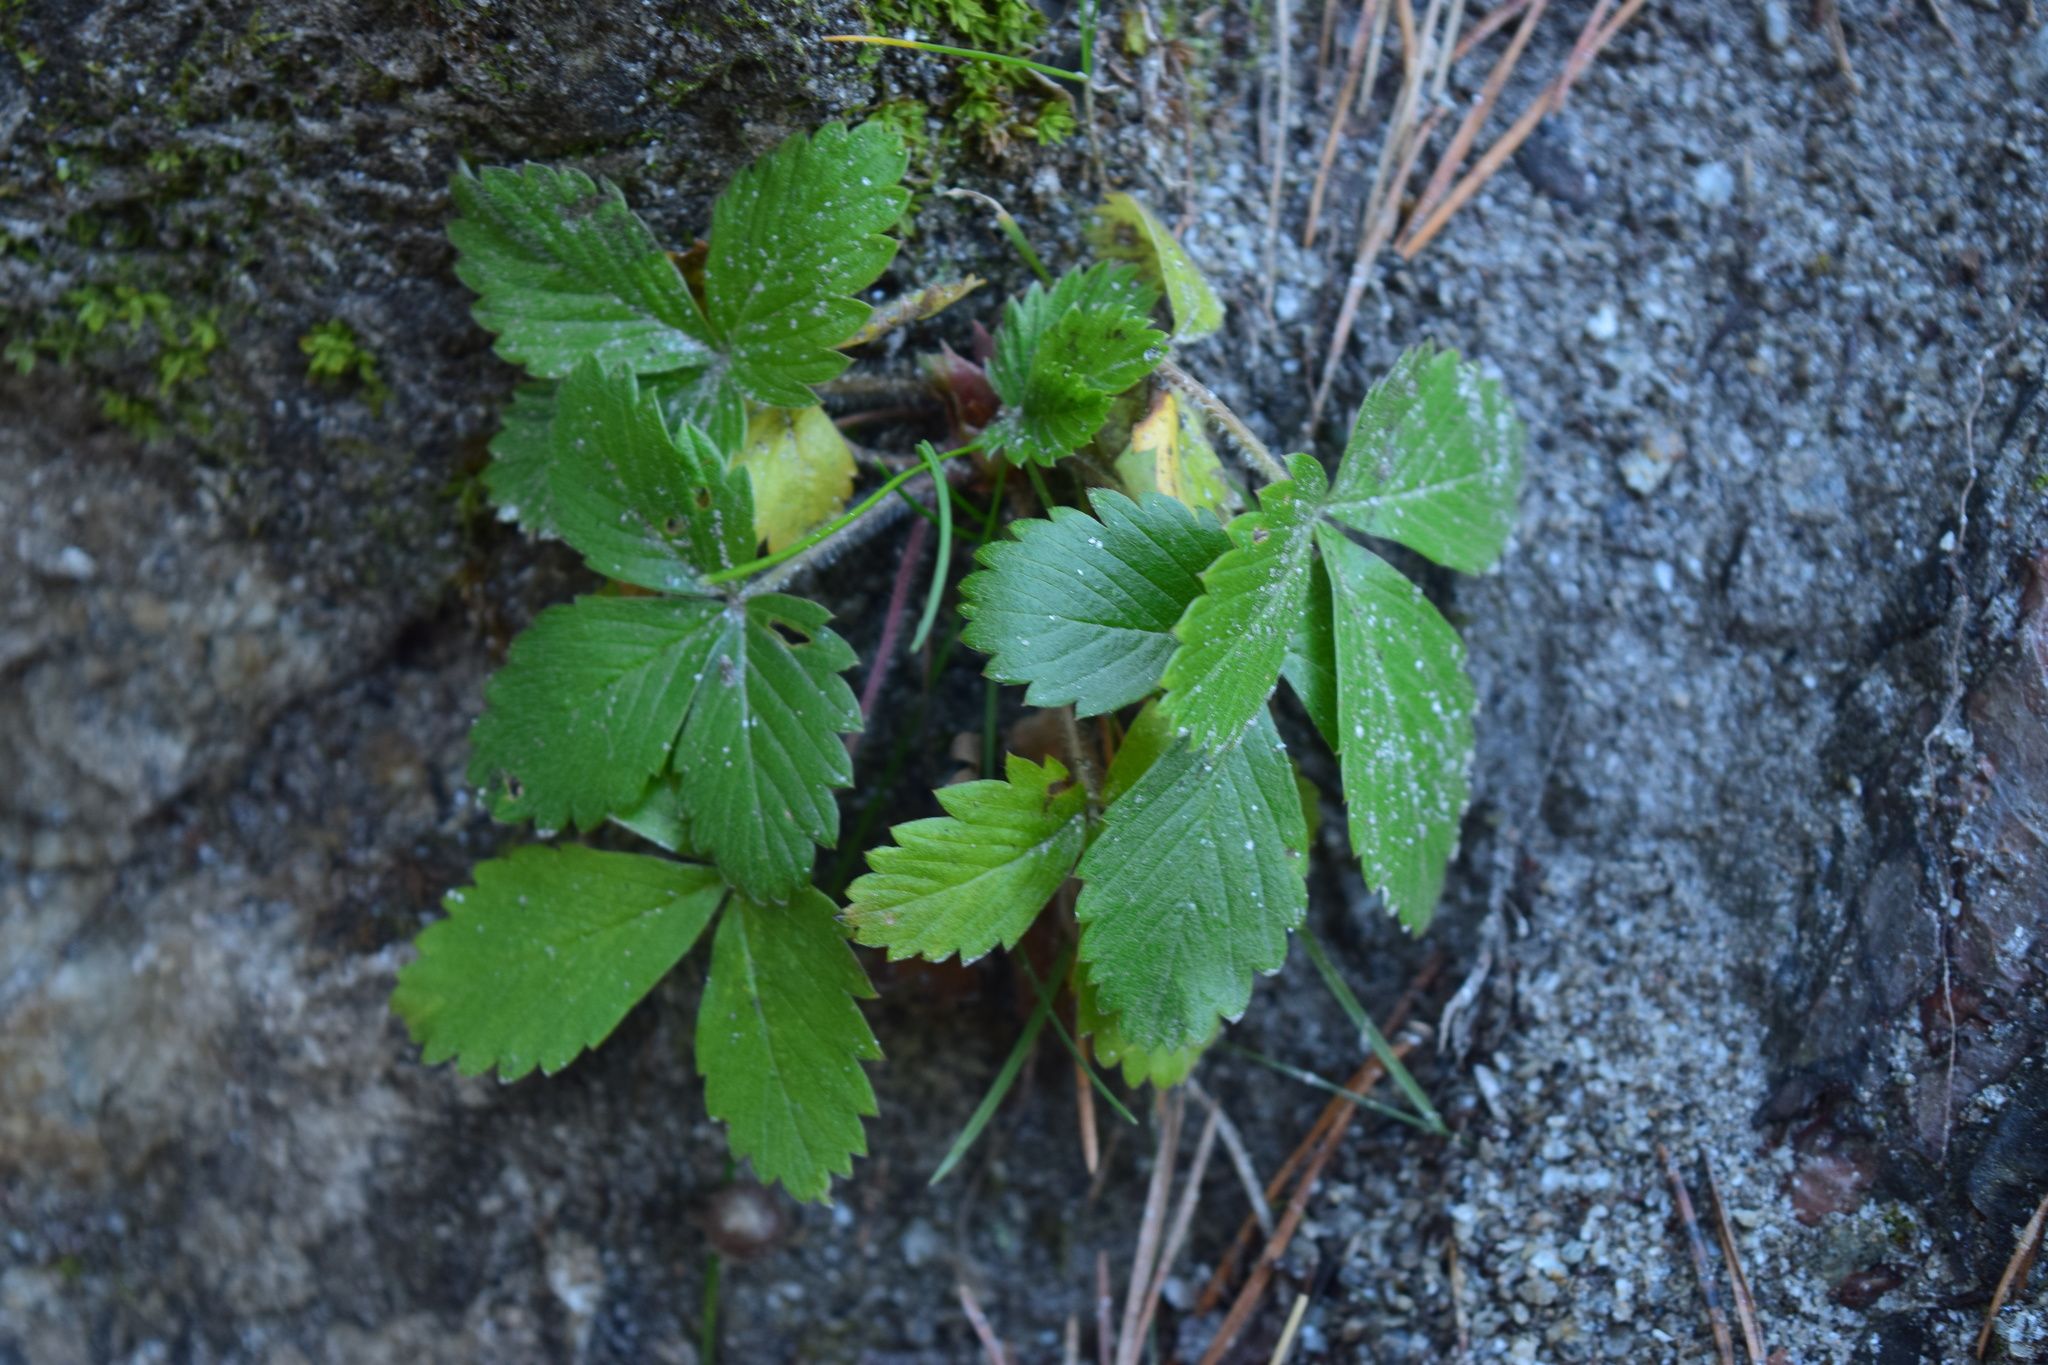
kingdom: Plantae
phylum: Tracheophyta
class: Magnoliopsida
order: Rosales
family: Rosaceae
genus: Fragaria
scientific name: Fragaria vesca
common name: Wild strawberry
